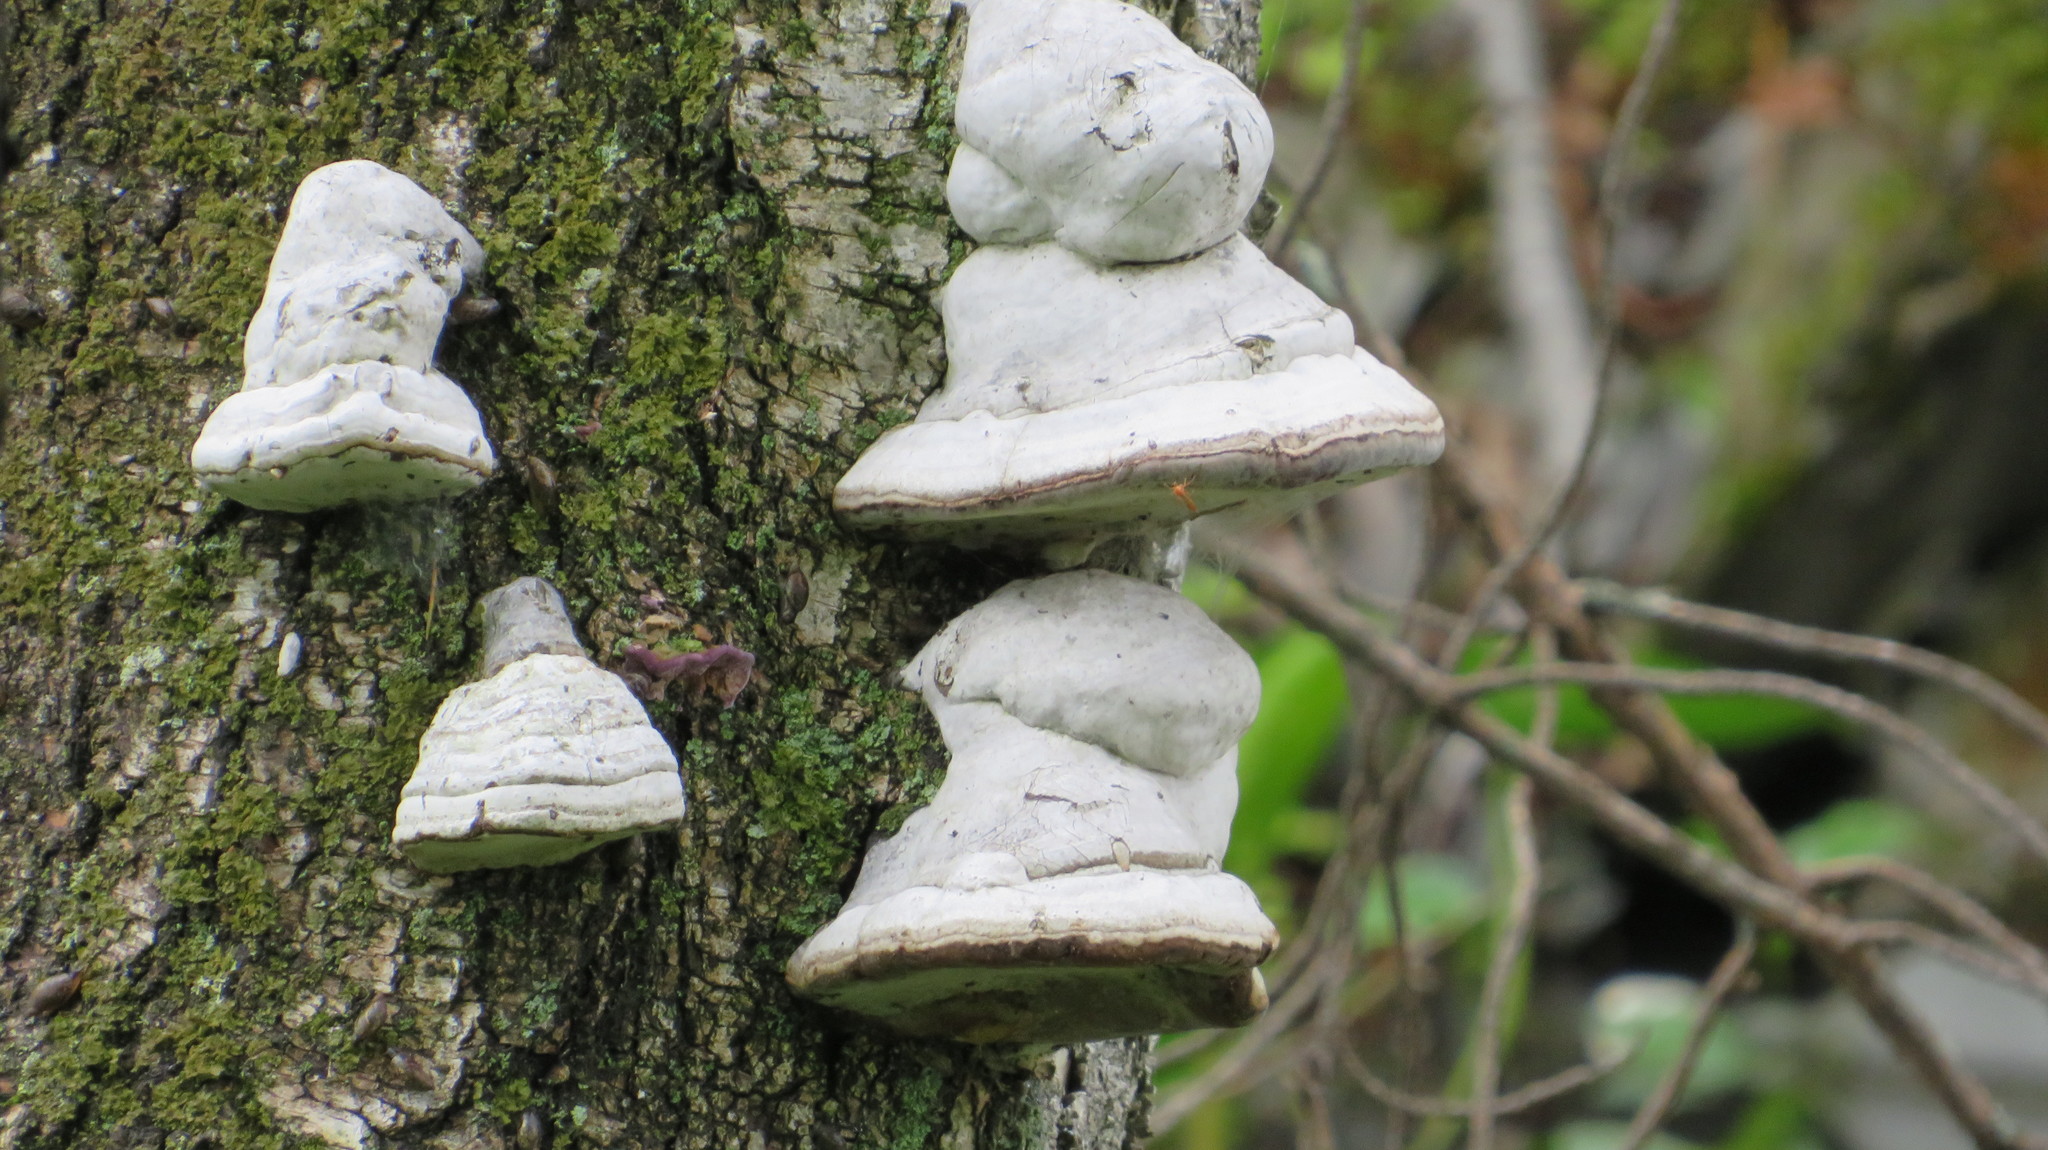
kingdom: Fungi
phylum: Basidiomycota
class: Agaricomycetes
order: Polyporales
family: Polyporaceae
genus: Fomes
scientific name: Fomes fomentarius
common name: Hoof fungus
